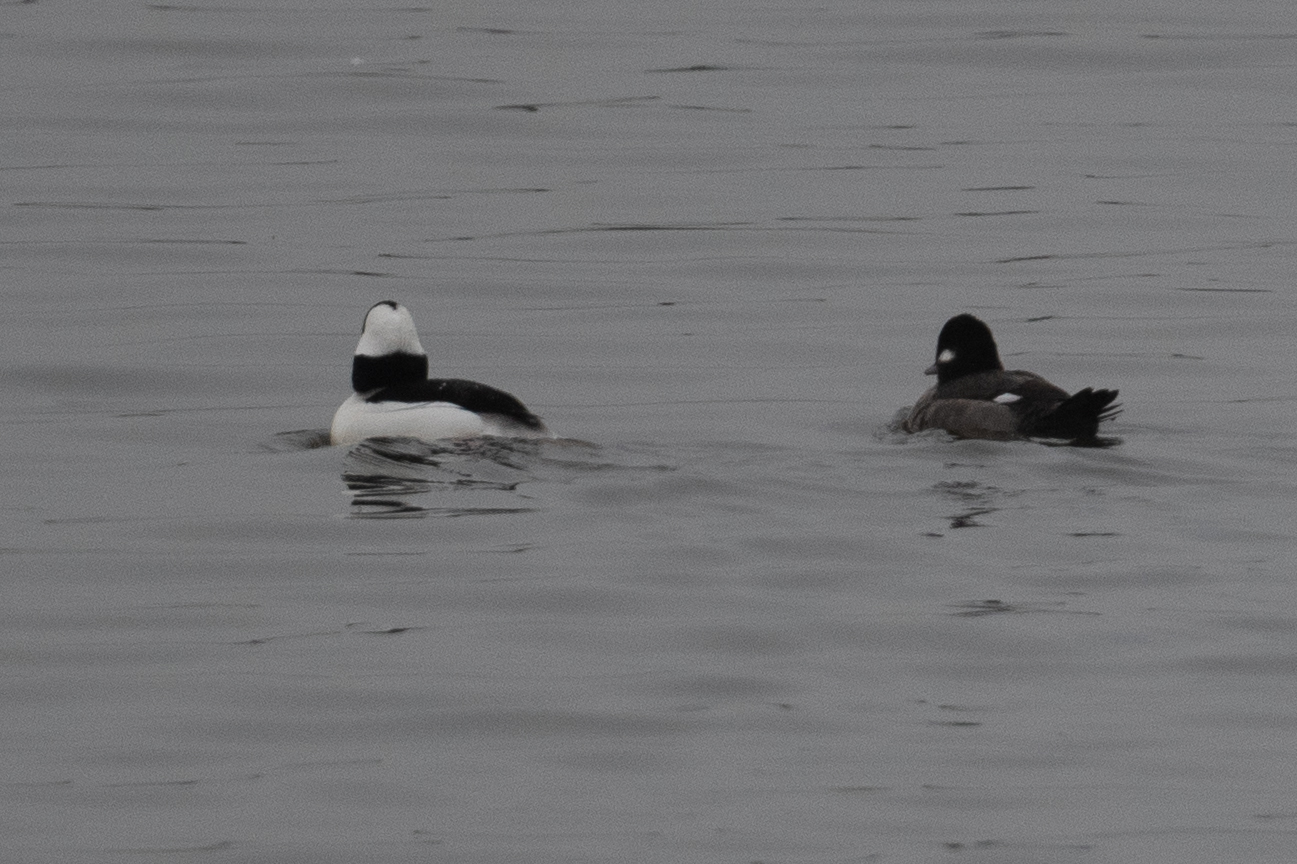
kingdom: Animalia
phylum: Chordata
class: Aves
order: Anseriformes
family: Anatidae
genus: Bucephala
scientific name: Bucephala albeola
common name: Bufflehead
